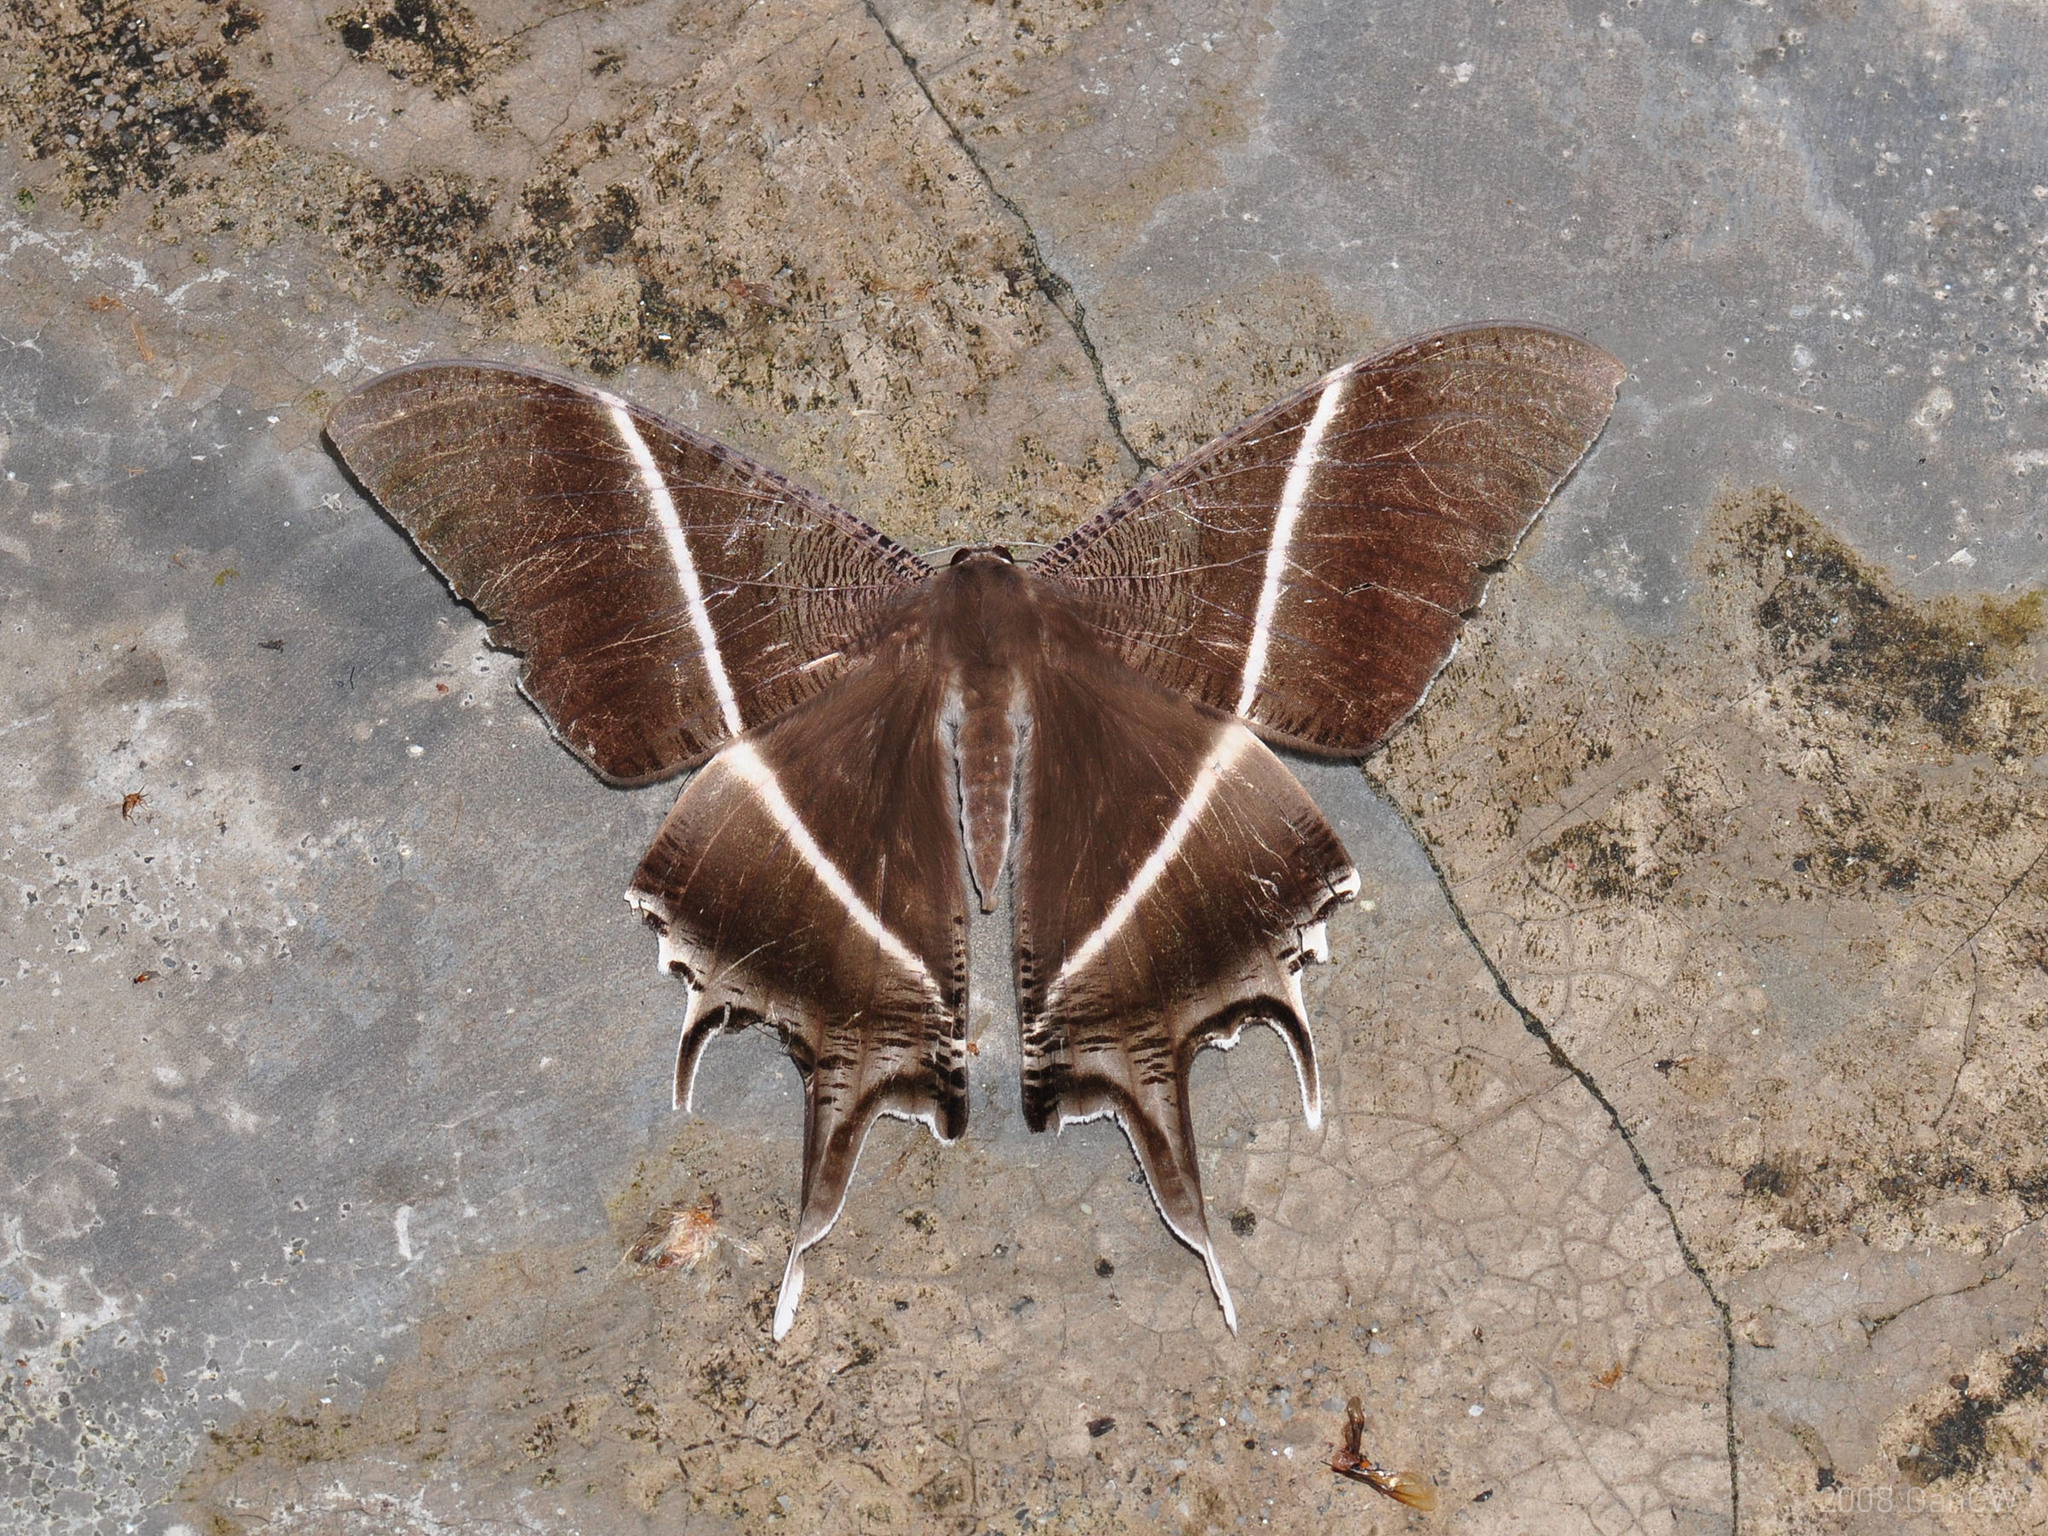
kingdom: Animalia
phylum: Arthropoda
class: Insecta
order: Lepidoptera
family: Uraniidae
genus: Lyssa
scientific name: Lyssa zampa
